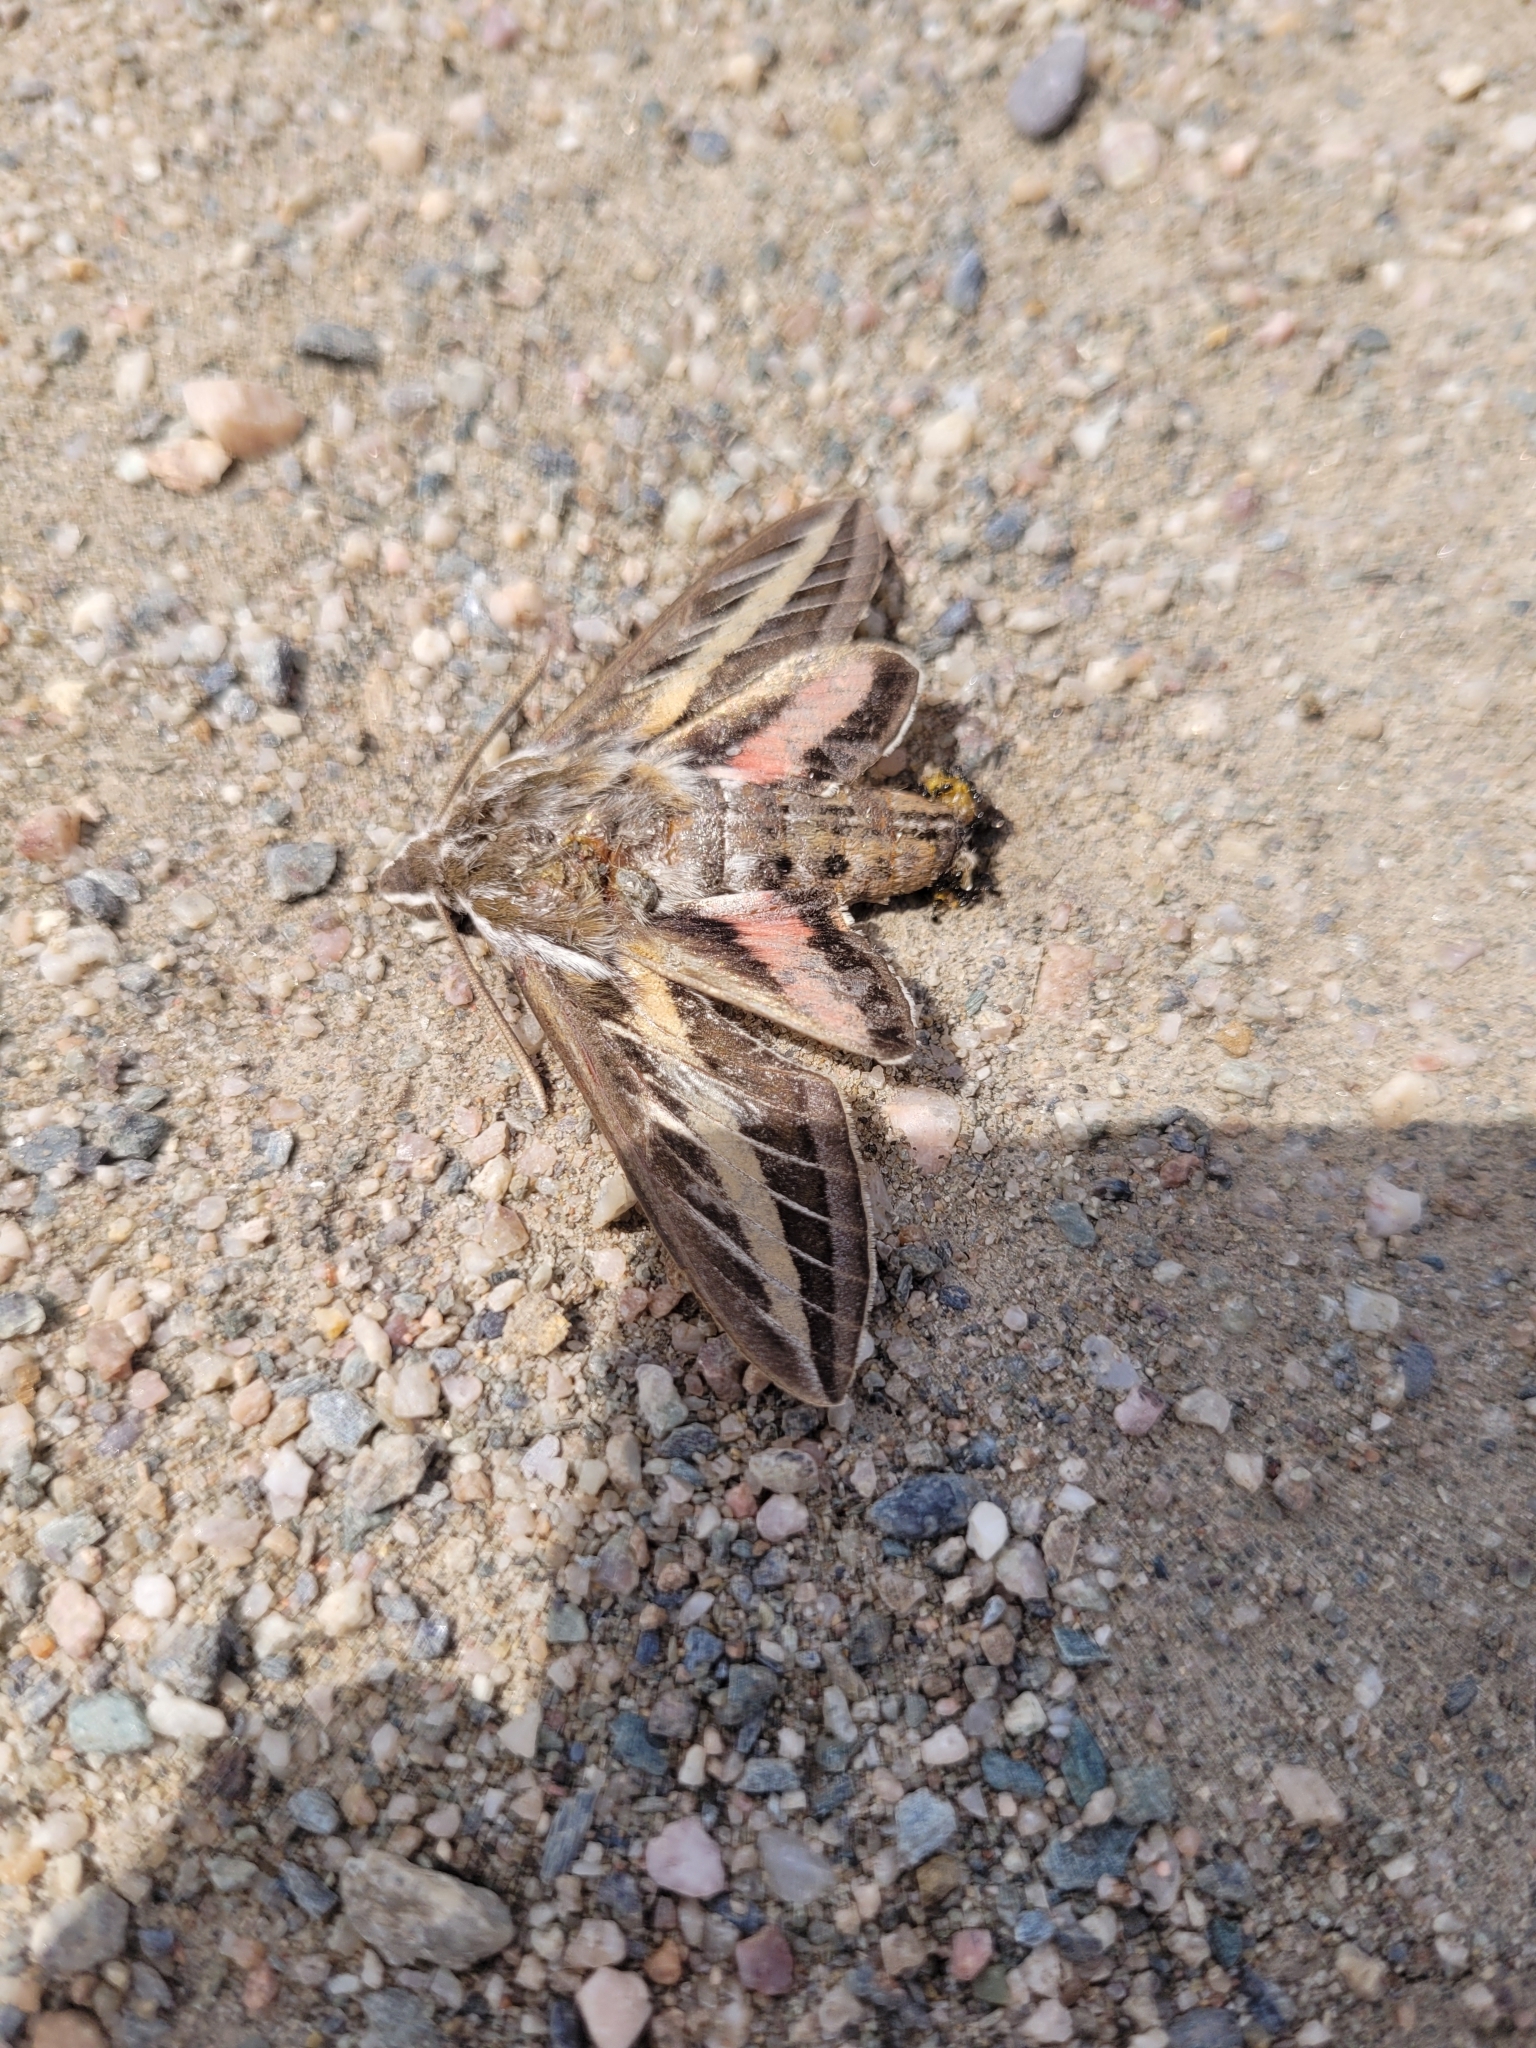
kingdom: Animalia
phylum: Arthropoda
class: Insecta
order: Lepidoptera
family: Sphingidae
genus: Hyles
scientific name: Hyles lineata
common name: White-lined sphinx
